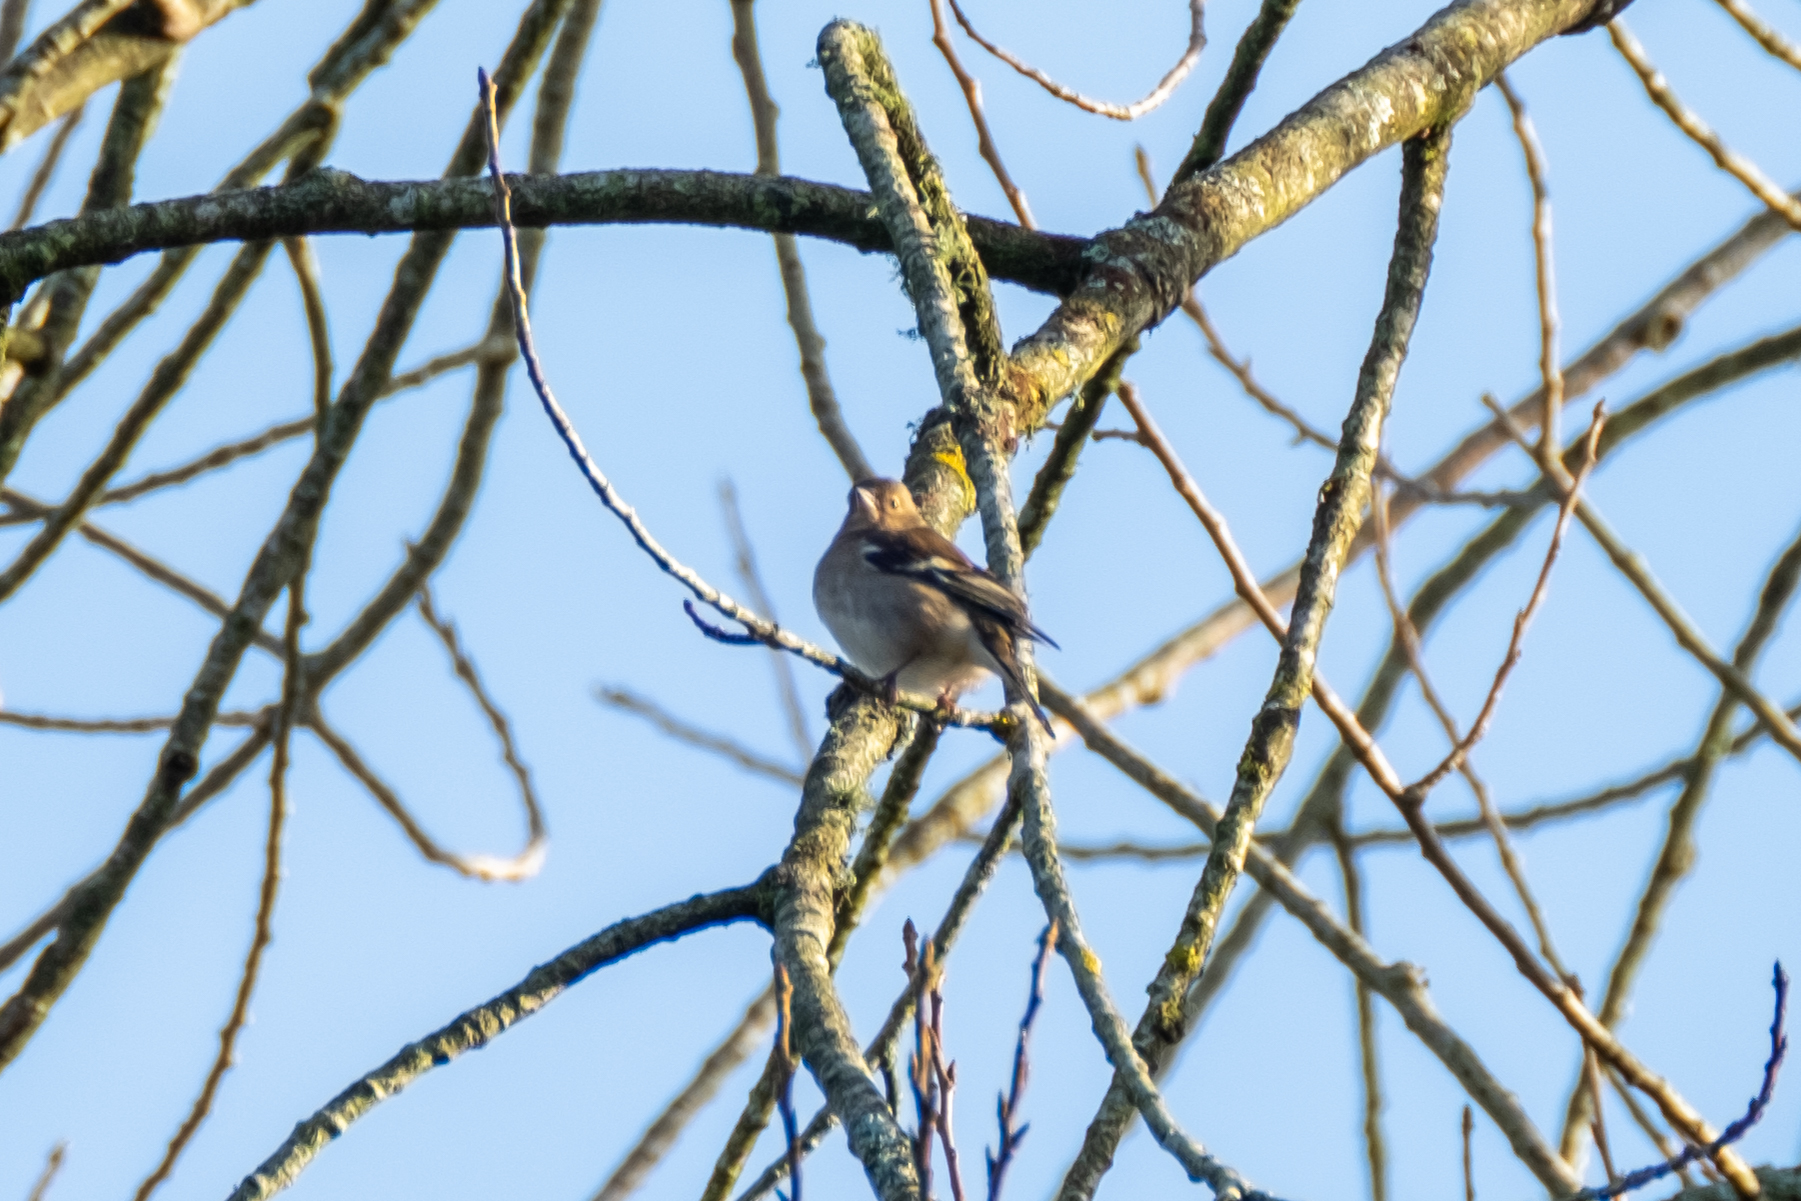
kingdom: Animalia
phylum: Chordata
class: Aves
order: Passeriformes
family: Fringillidae
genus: Fringilla
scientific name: Fringilla coelebs
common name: Common chaffinch
